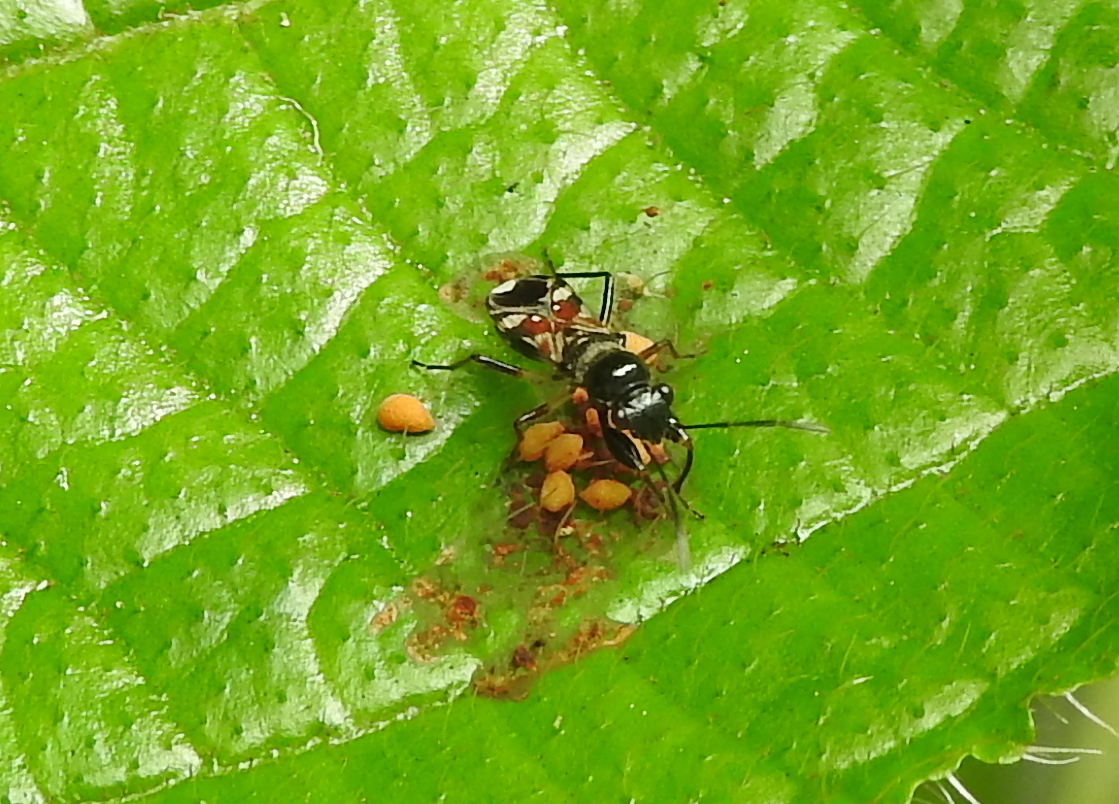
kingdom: Animalia
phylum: Arthropoda
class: Insecta
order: Hemiptera
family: Rhyparochromidae
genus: Caridops
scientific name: Caridops globicollis
